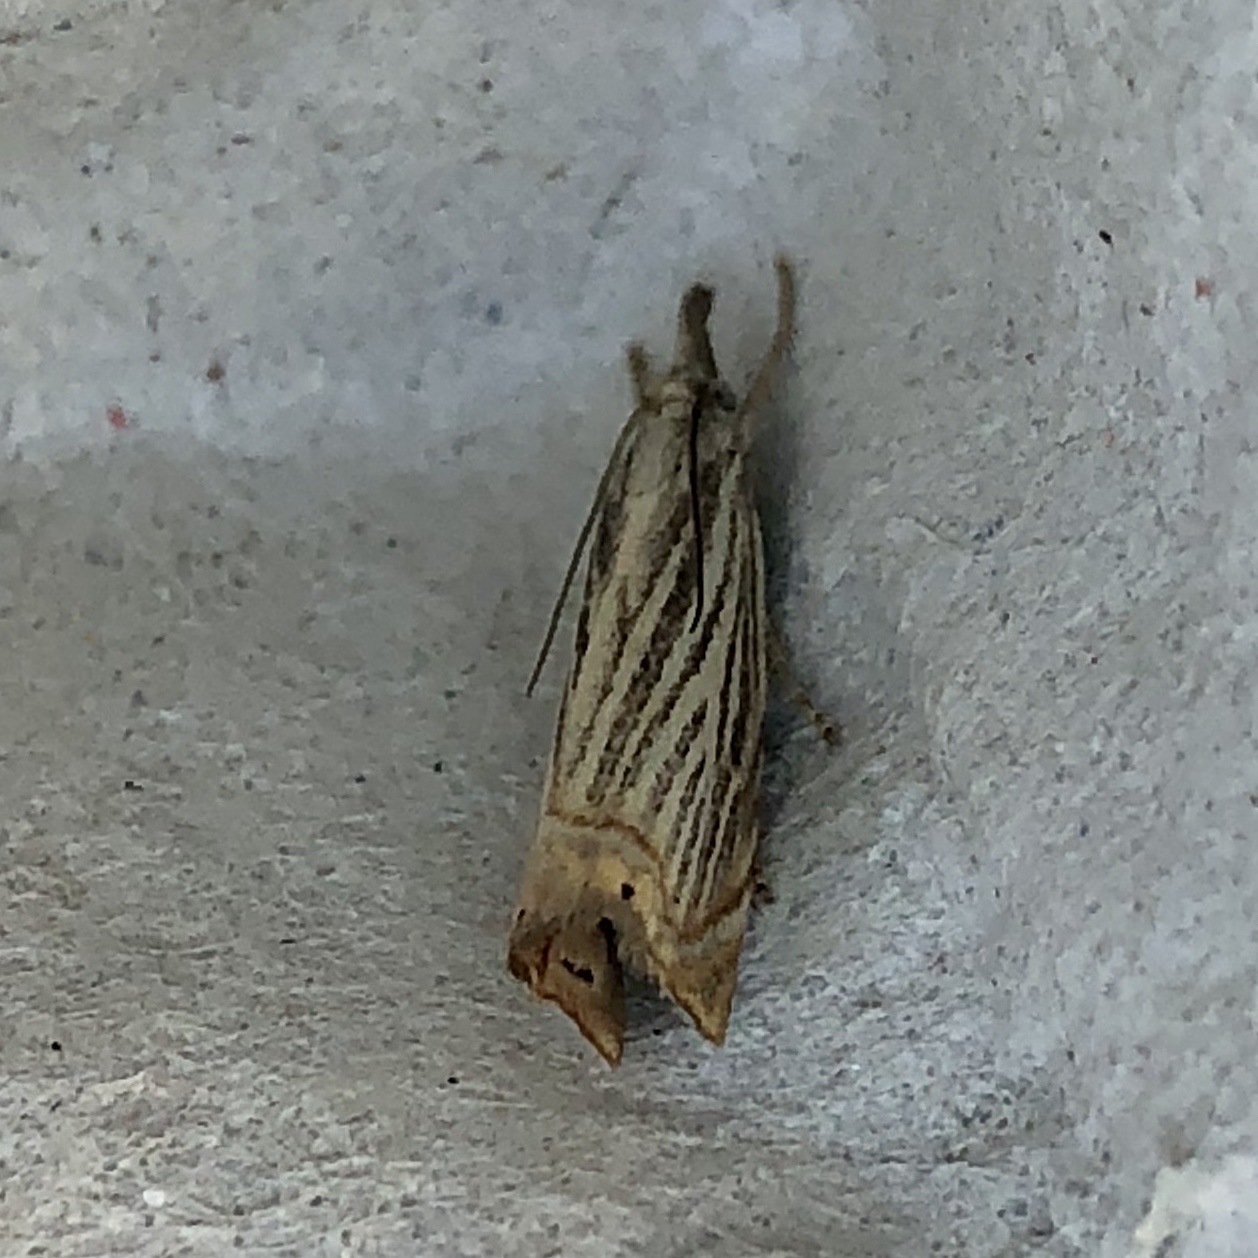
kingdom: Animalia
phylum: Arthropoda
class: Insecta
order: Lepidoptera
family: Crambidae
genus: Chrysoteuchia
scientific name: Chrysoteuchia culmella
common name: Garden grass-veneer
